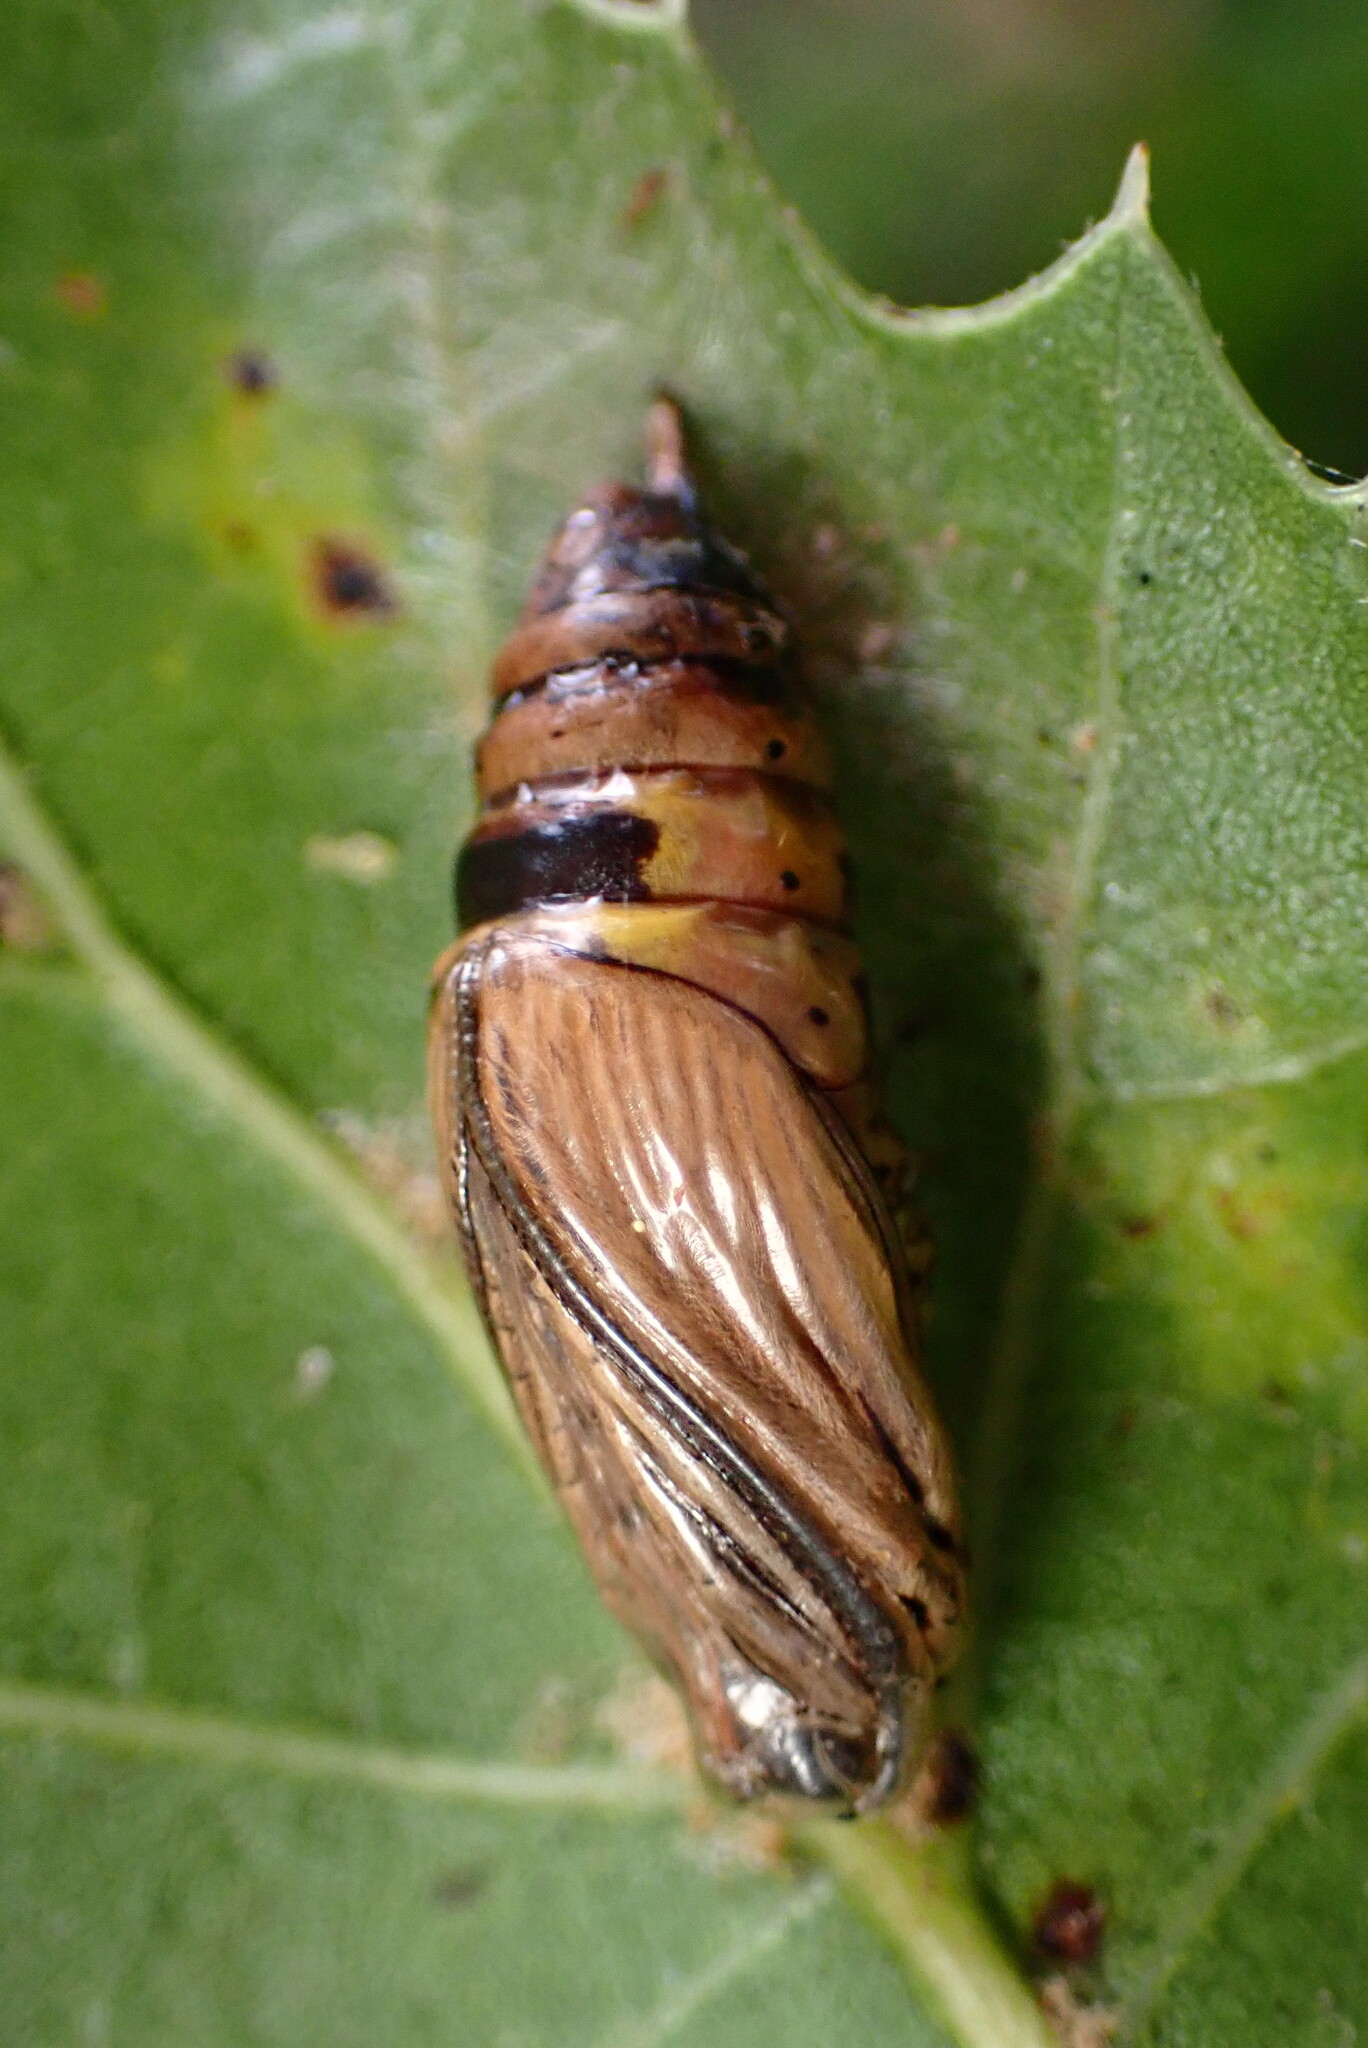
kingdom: Animalia
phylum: Arthropoda
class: Insecta
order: Lepidoptera
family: Notodontidae
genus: Phryganidia
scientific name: Phryganidia californica
